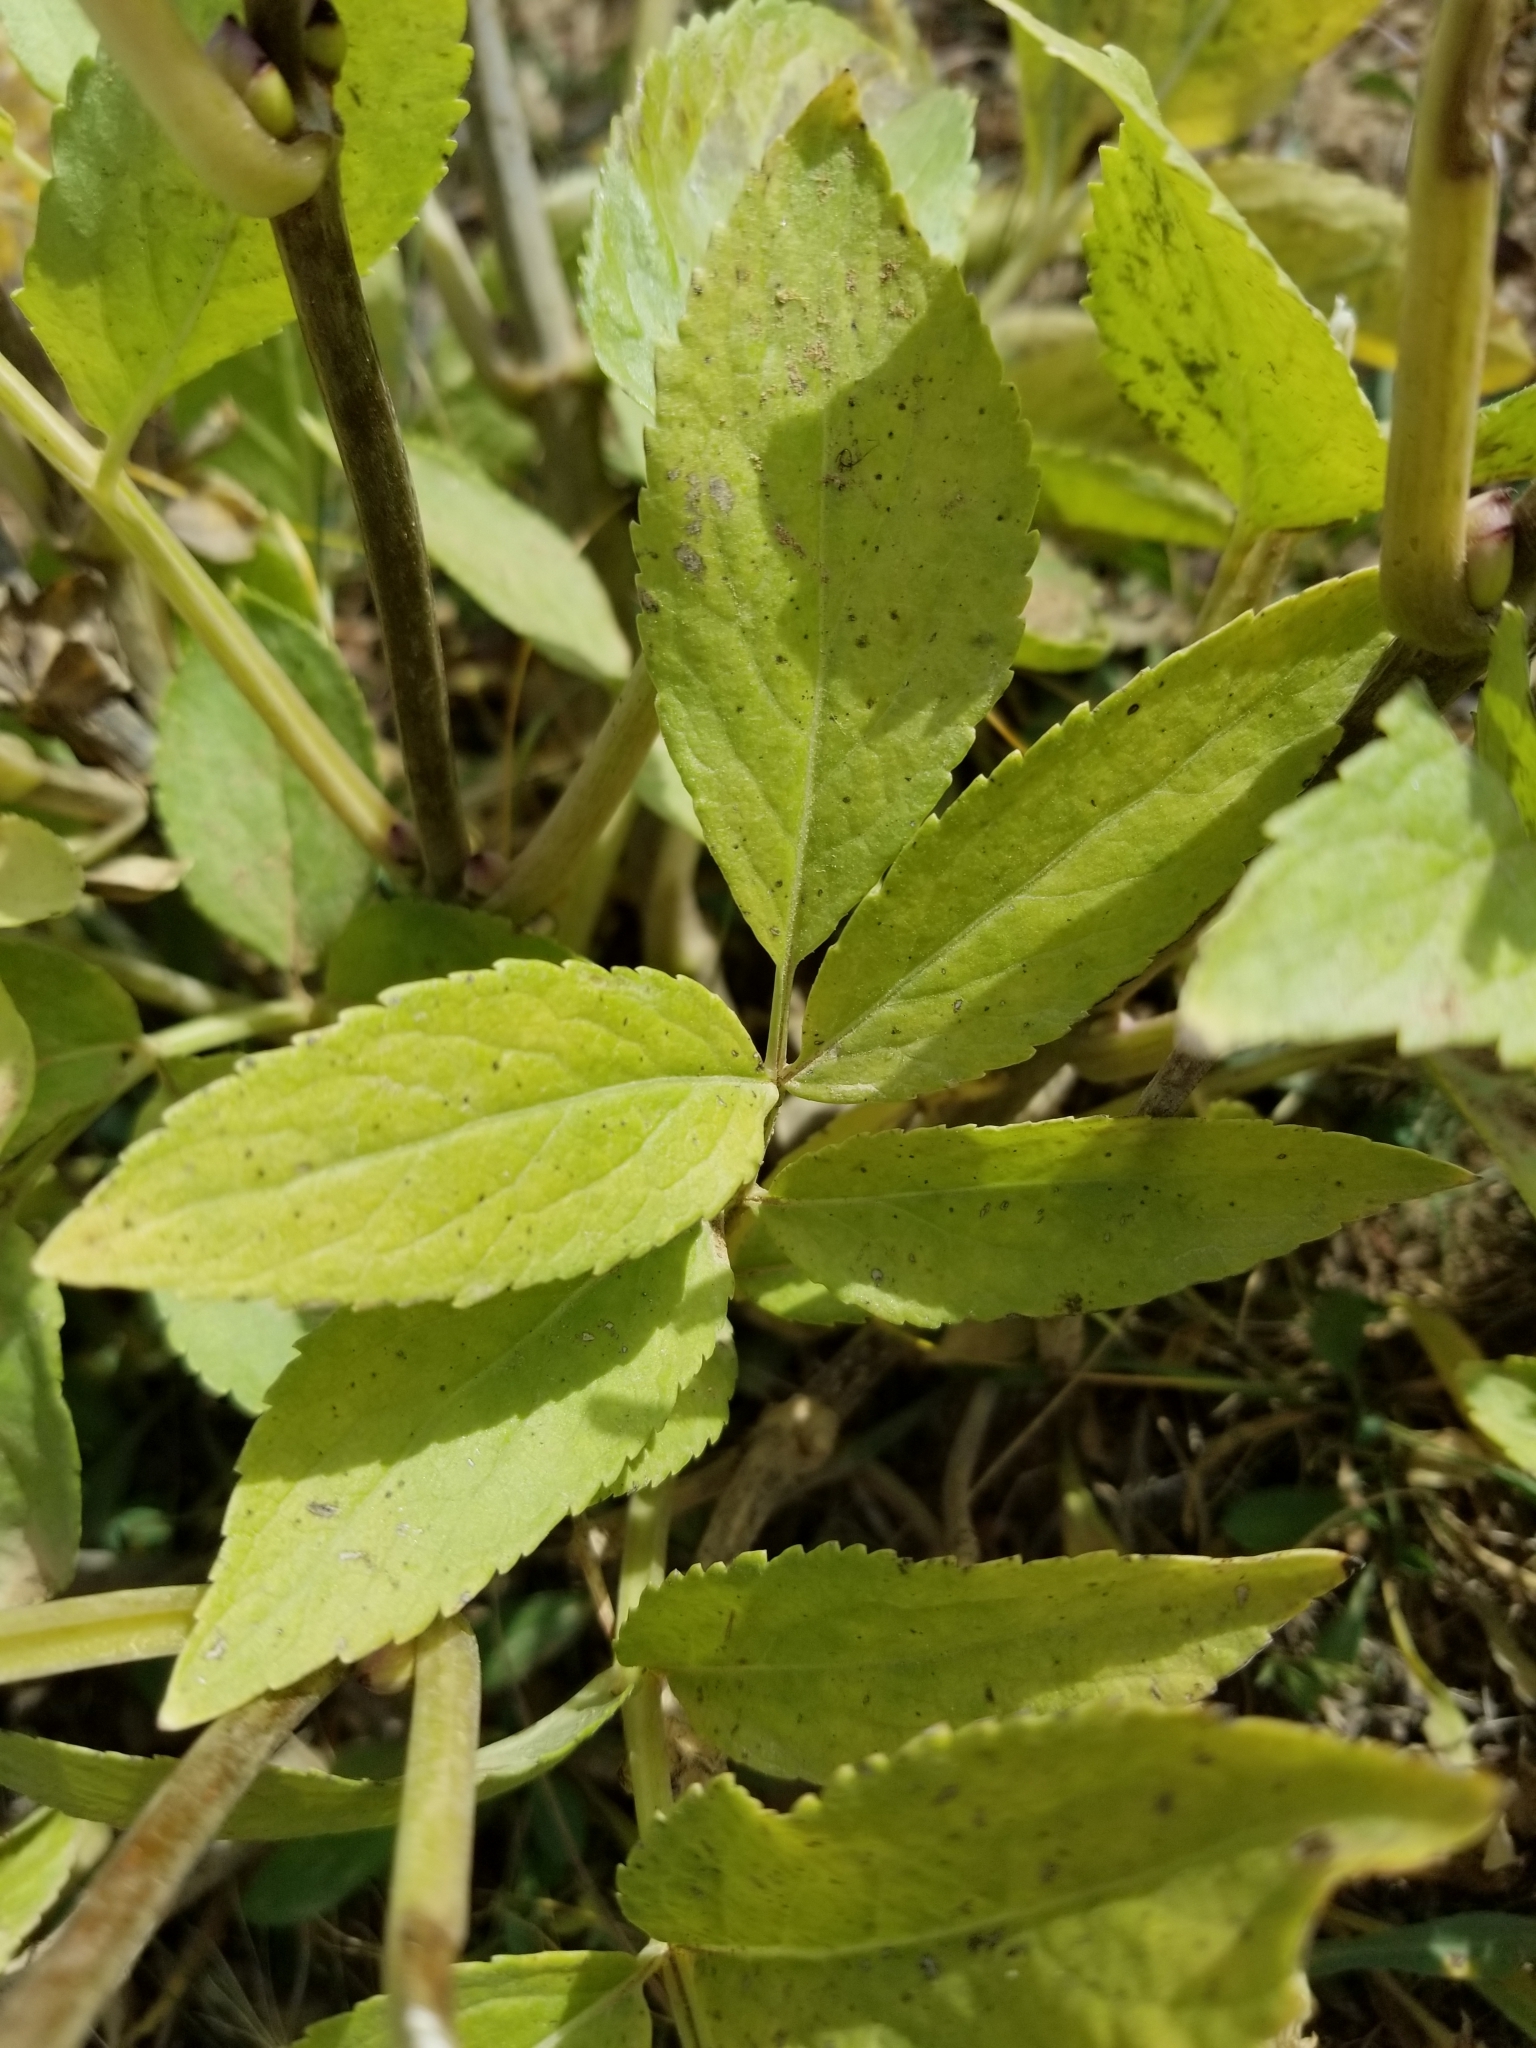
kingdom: Plantae
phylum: Tracheophyta
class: Magnoliopsida
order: Dipsacales
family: Viburnaceae
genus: Sambucus
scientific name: Sambucus racemosa
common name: Red-berried elder
